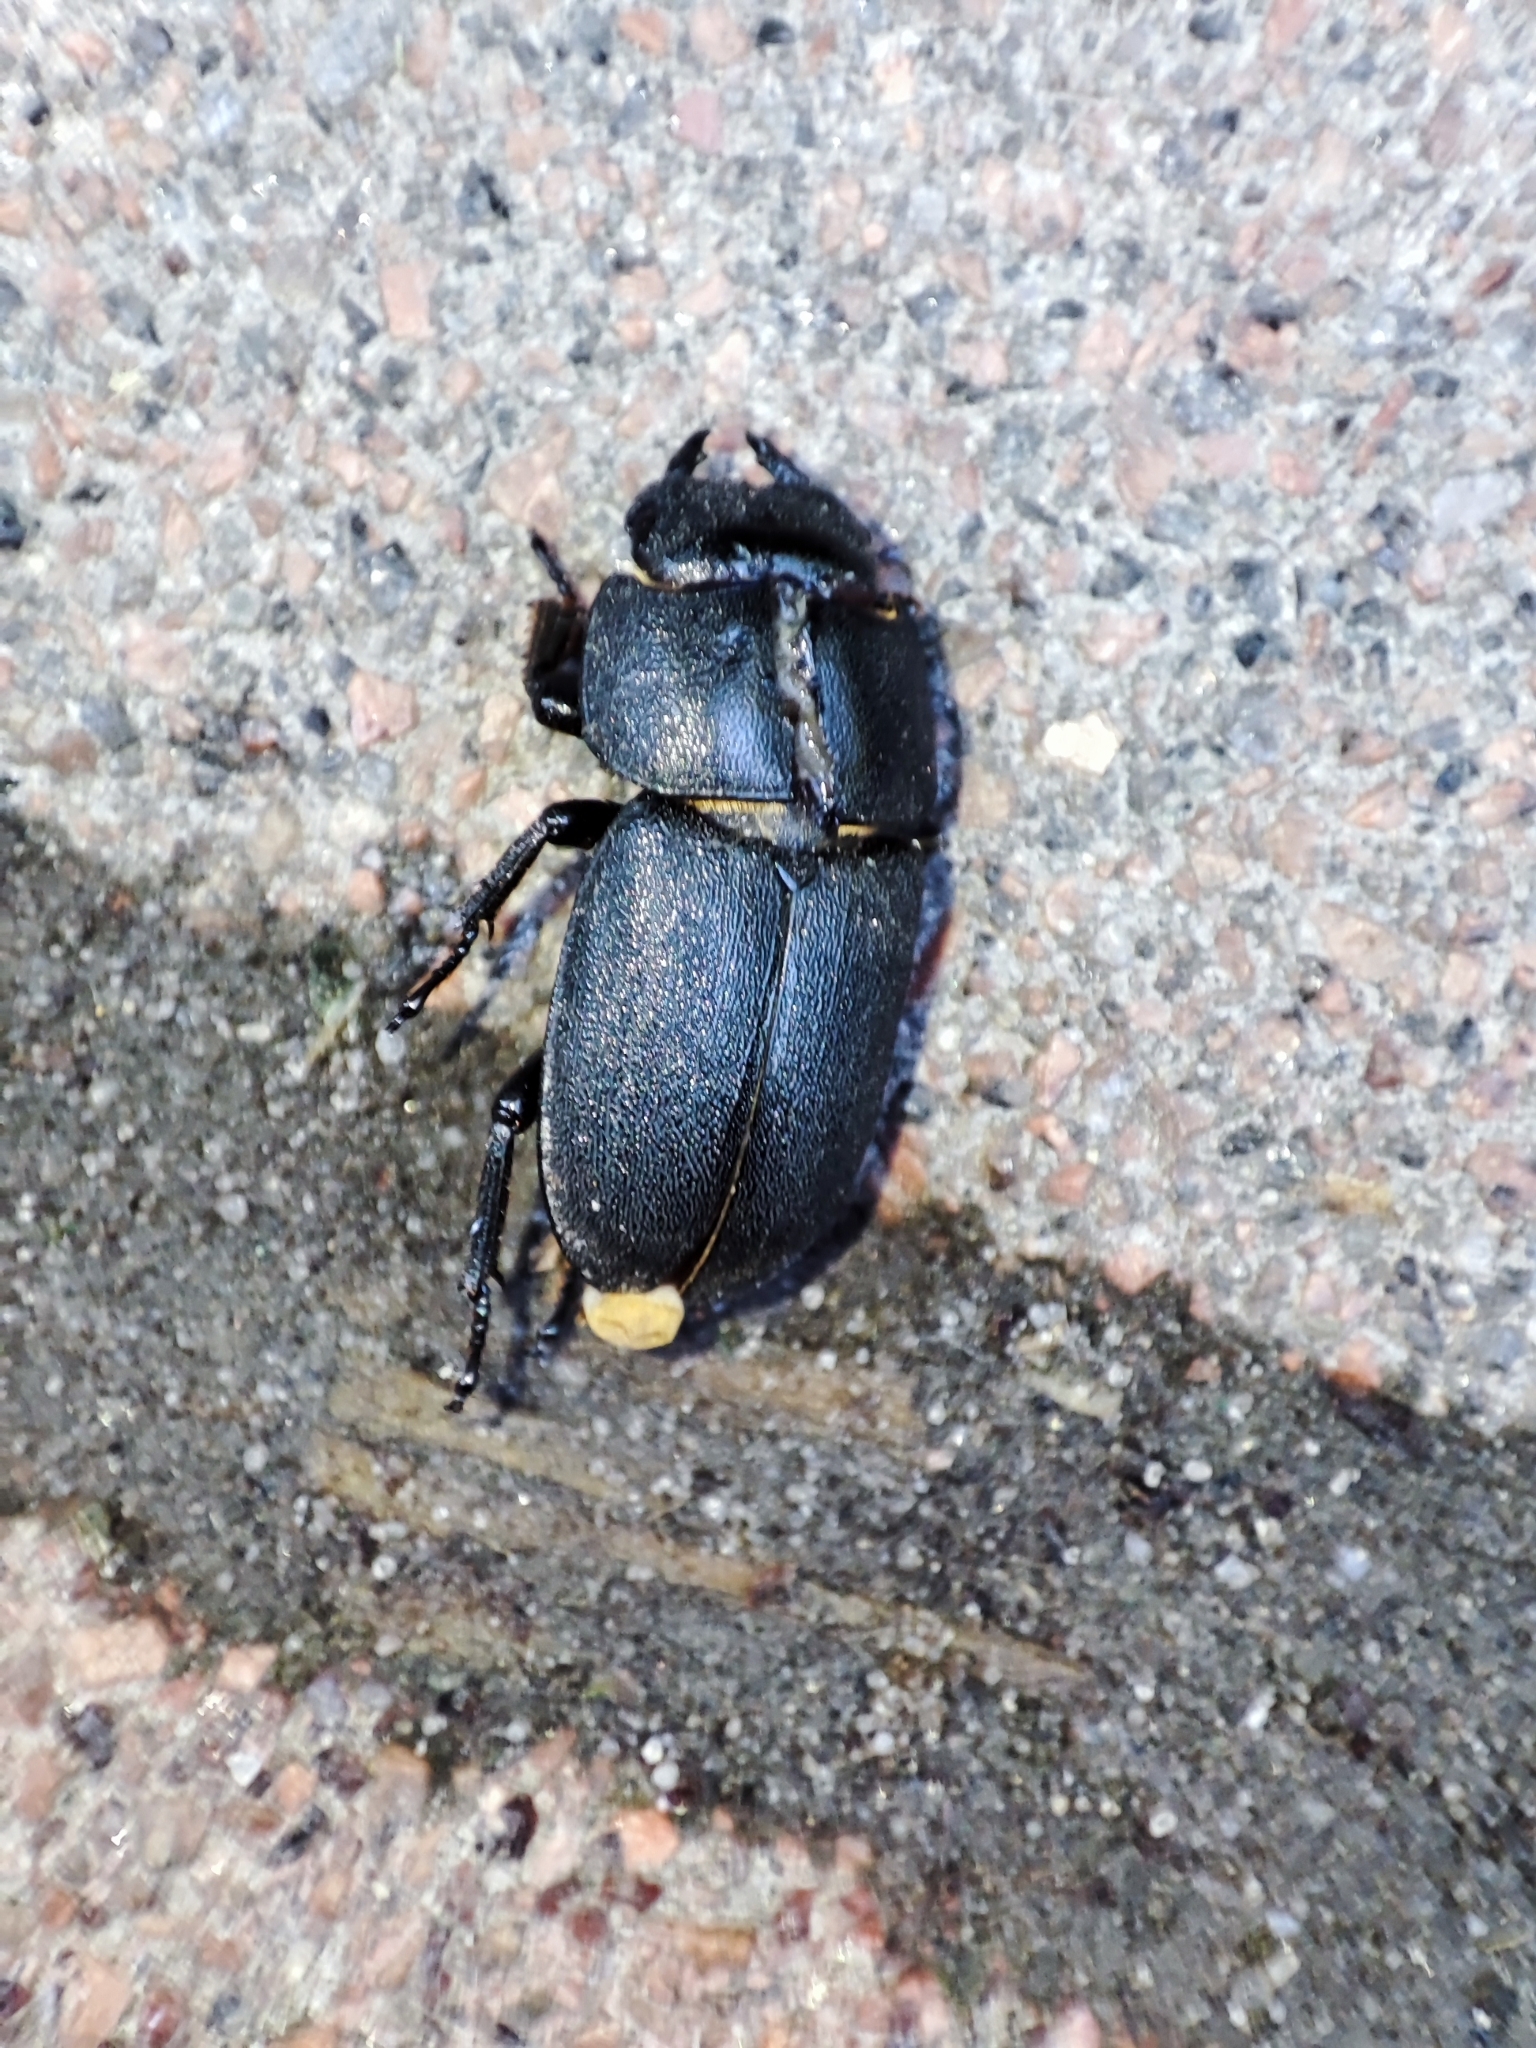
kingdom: Animalia
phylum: Arthropoda
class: Insecta
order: Coleoptera
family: Lucanidae
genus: Dorcus
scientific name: Dorcus parallelipipedus
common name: Lesser stag beetle
